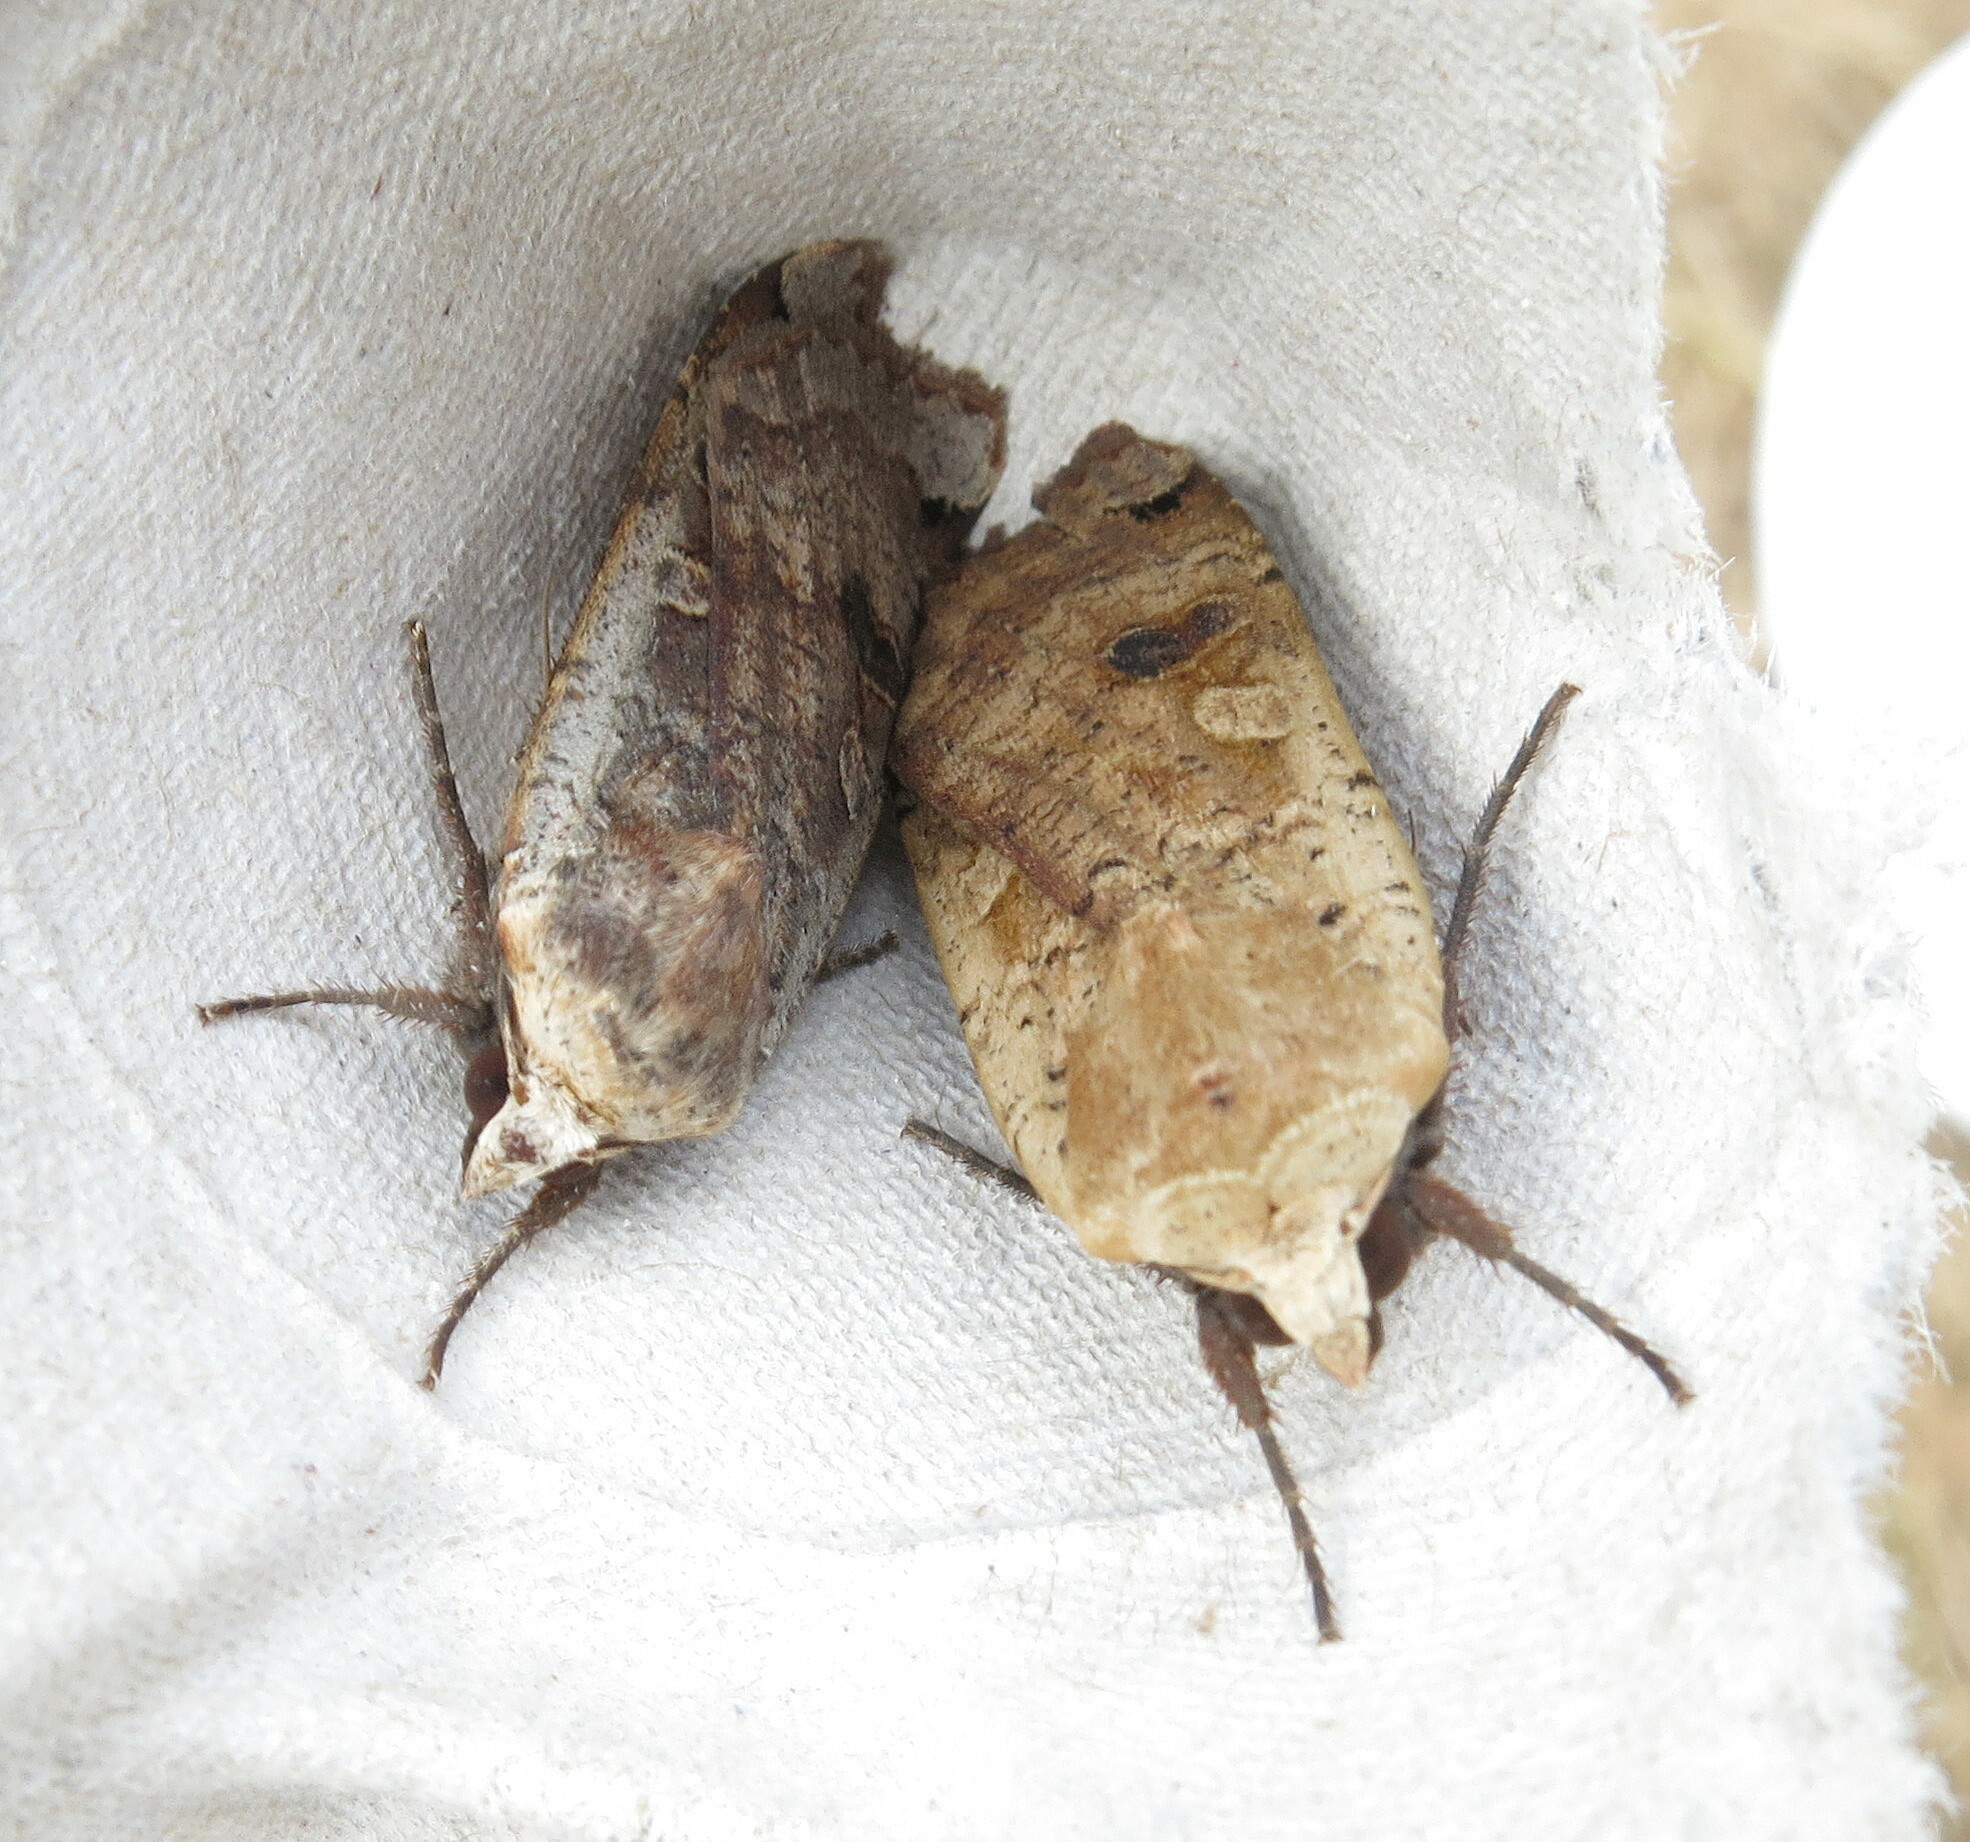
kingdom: Animalia
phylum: Arthropoda
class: Insecta
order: Lepidoptera
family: Noctuidae
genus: Noctua
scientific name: Noctua pronuba
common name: Large yellow underwing
